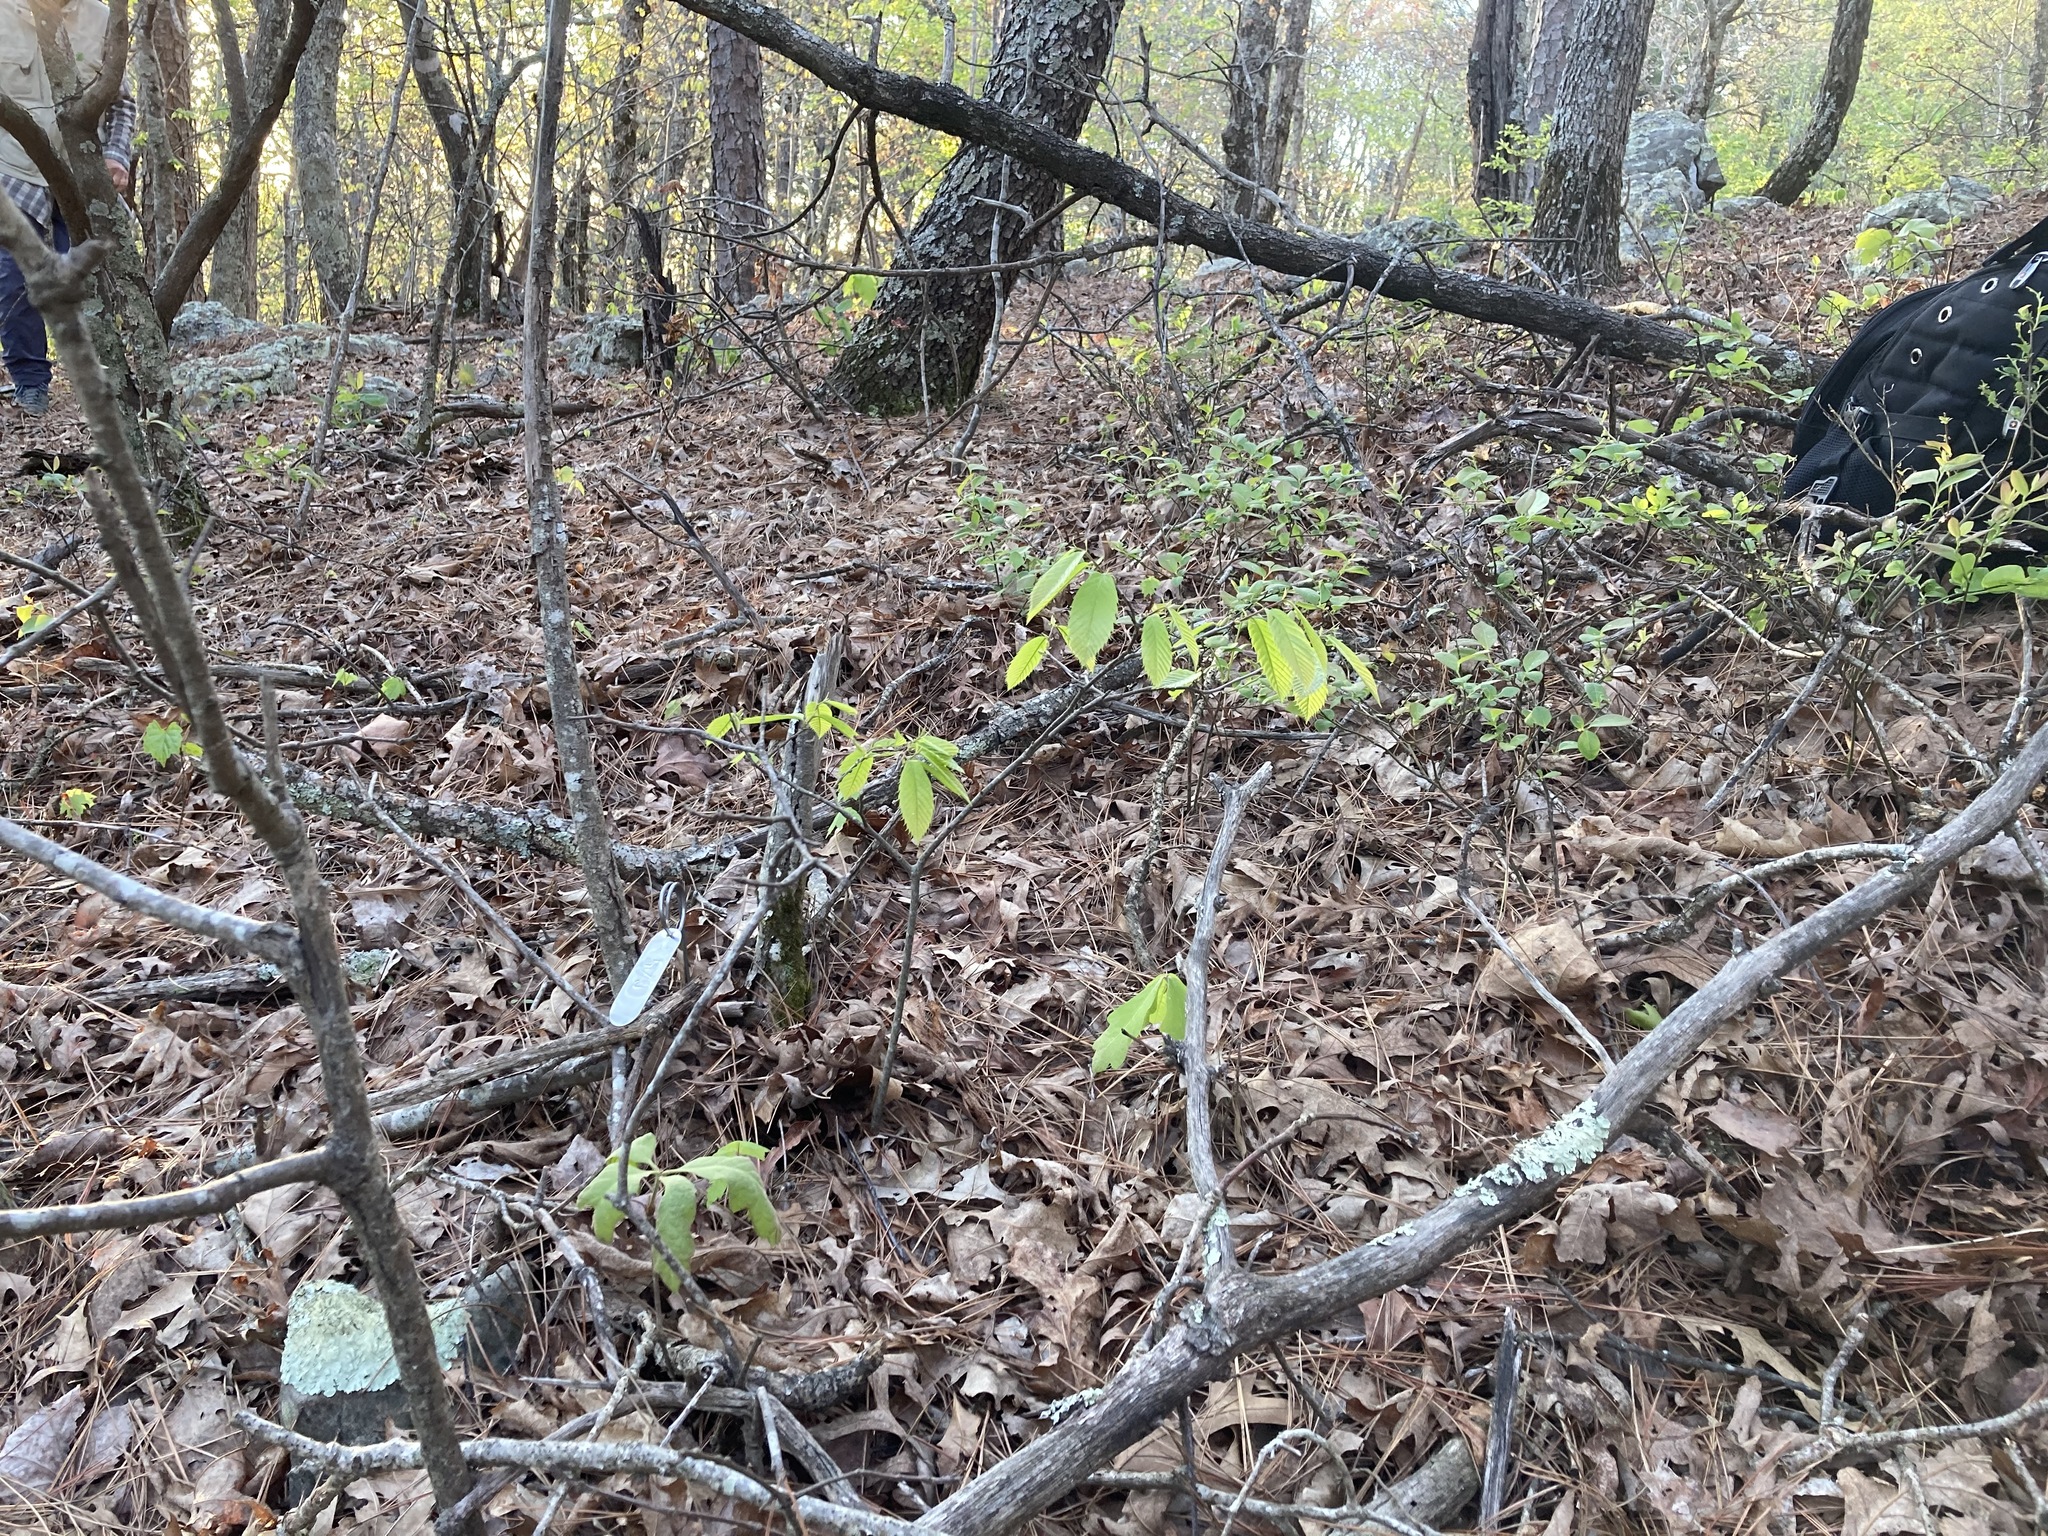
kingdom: Plantae
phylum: Tracheophyta
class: Magnoliopsida
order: Fagales
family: Fagaceae
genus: Castanea
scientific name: Castanea ozarkensis
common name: Ozark chinkapin
